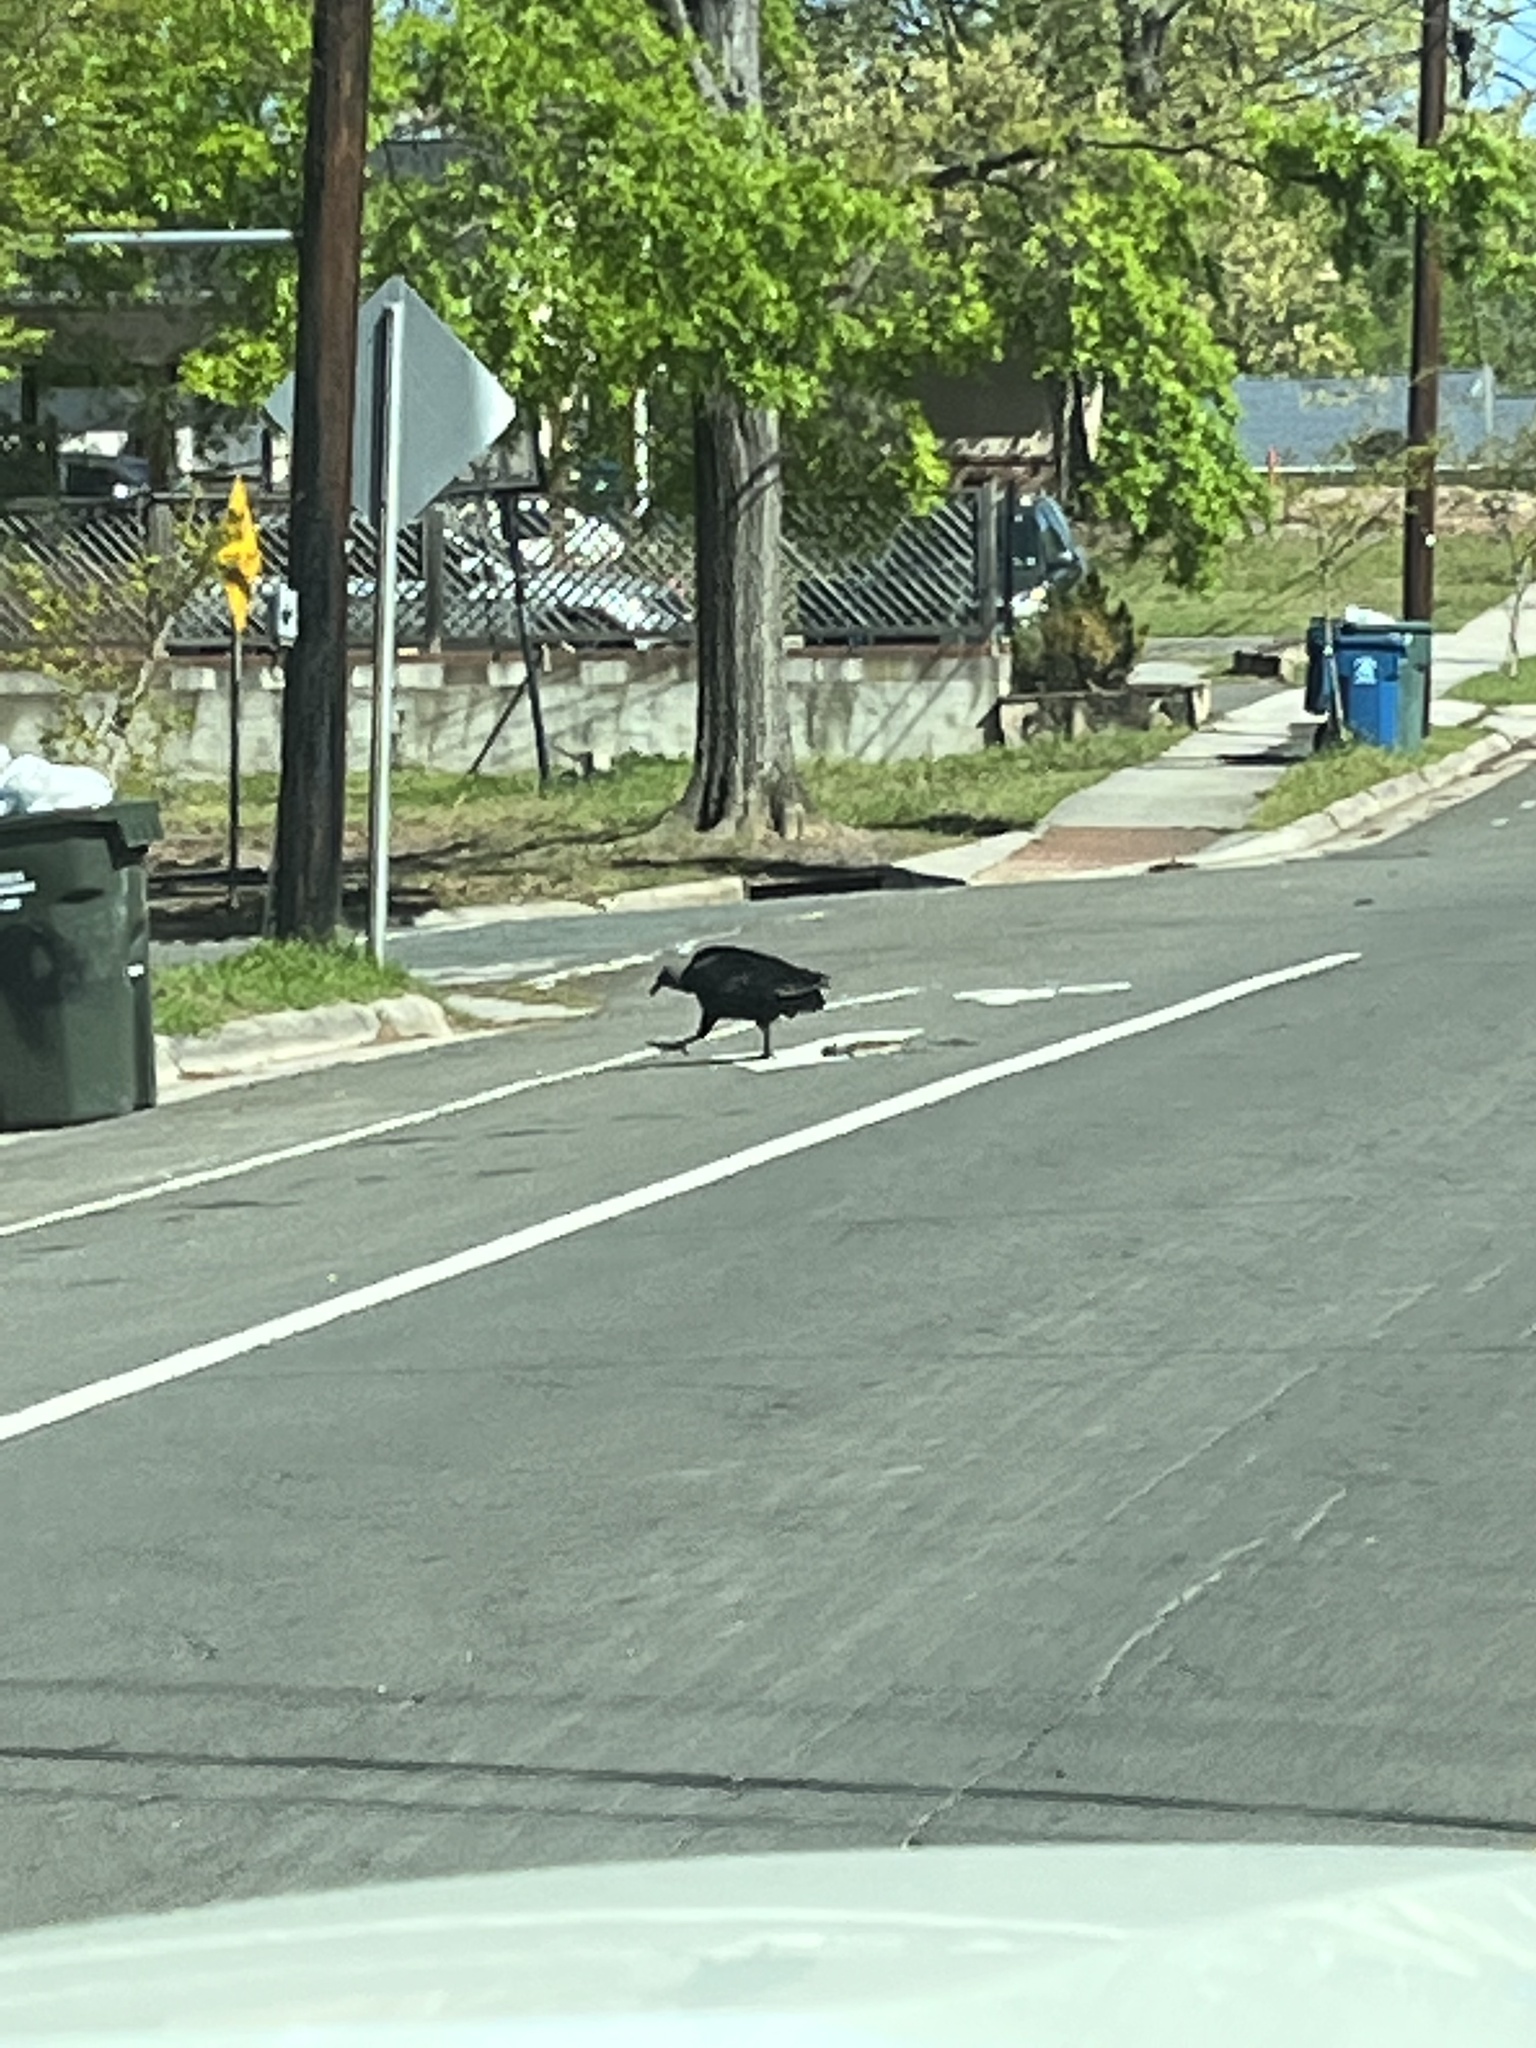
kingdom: Animalia
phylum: Chordata
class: Aves
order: Accipitriformes
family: Cathartidae
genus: Coragyps
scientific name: Coragyps atratus
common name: Black vulture
